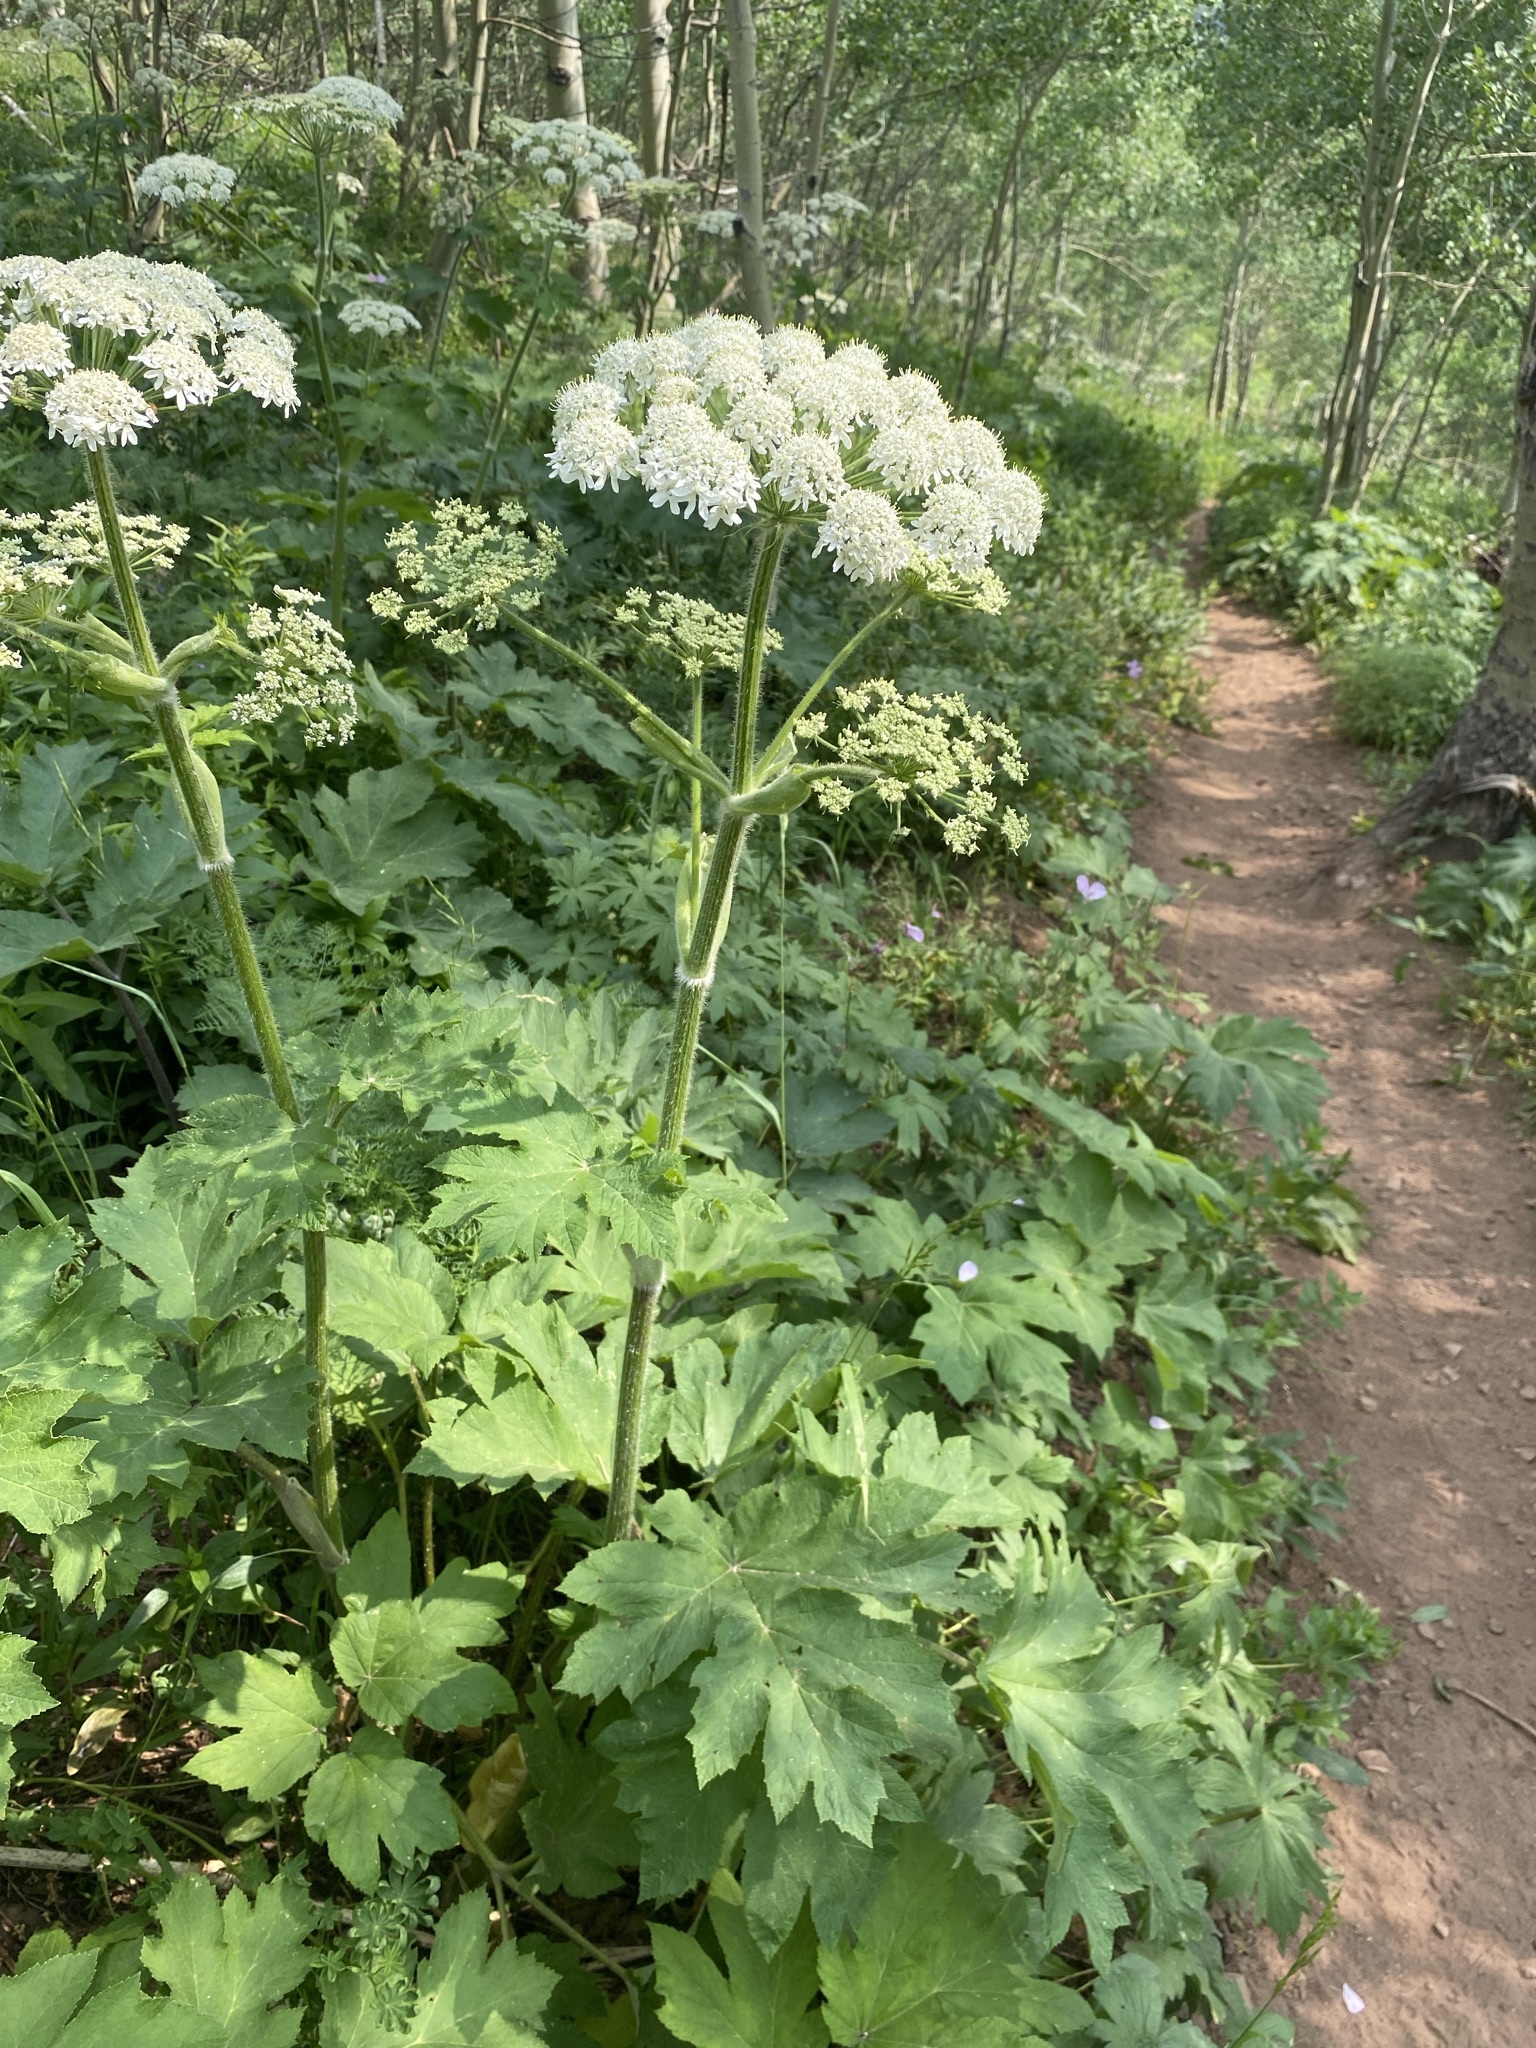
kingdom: Plantae
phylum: Tracheophyta
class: Magnoliopsida
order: Apiales
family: Apiaceae
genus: Heracleum
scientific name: Heracleum maximum
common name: American cow parsnip
